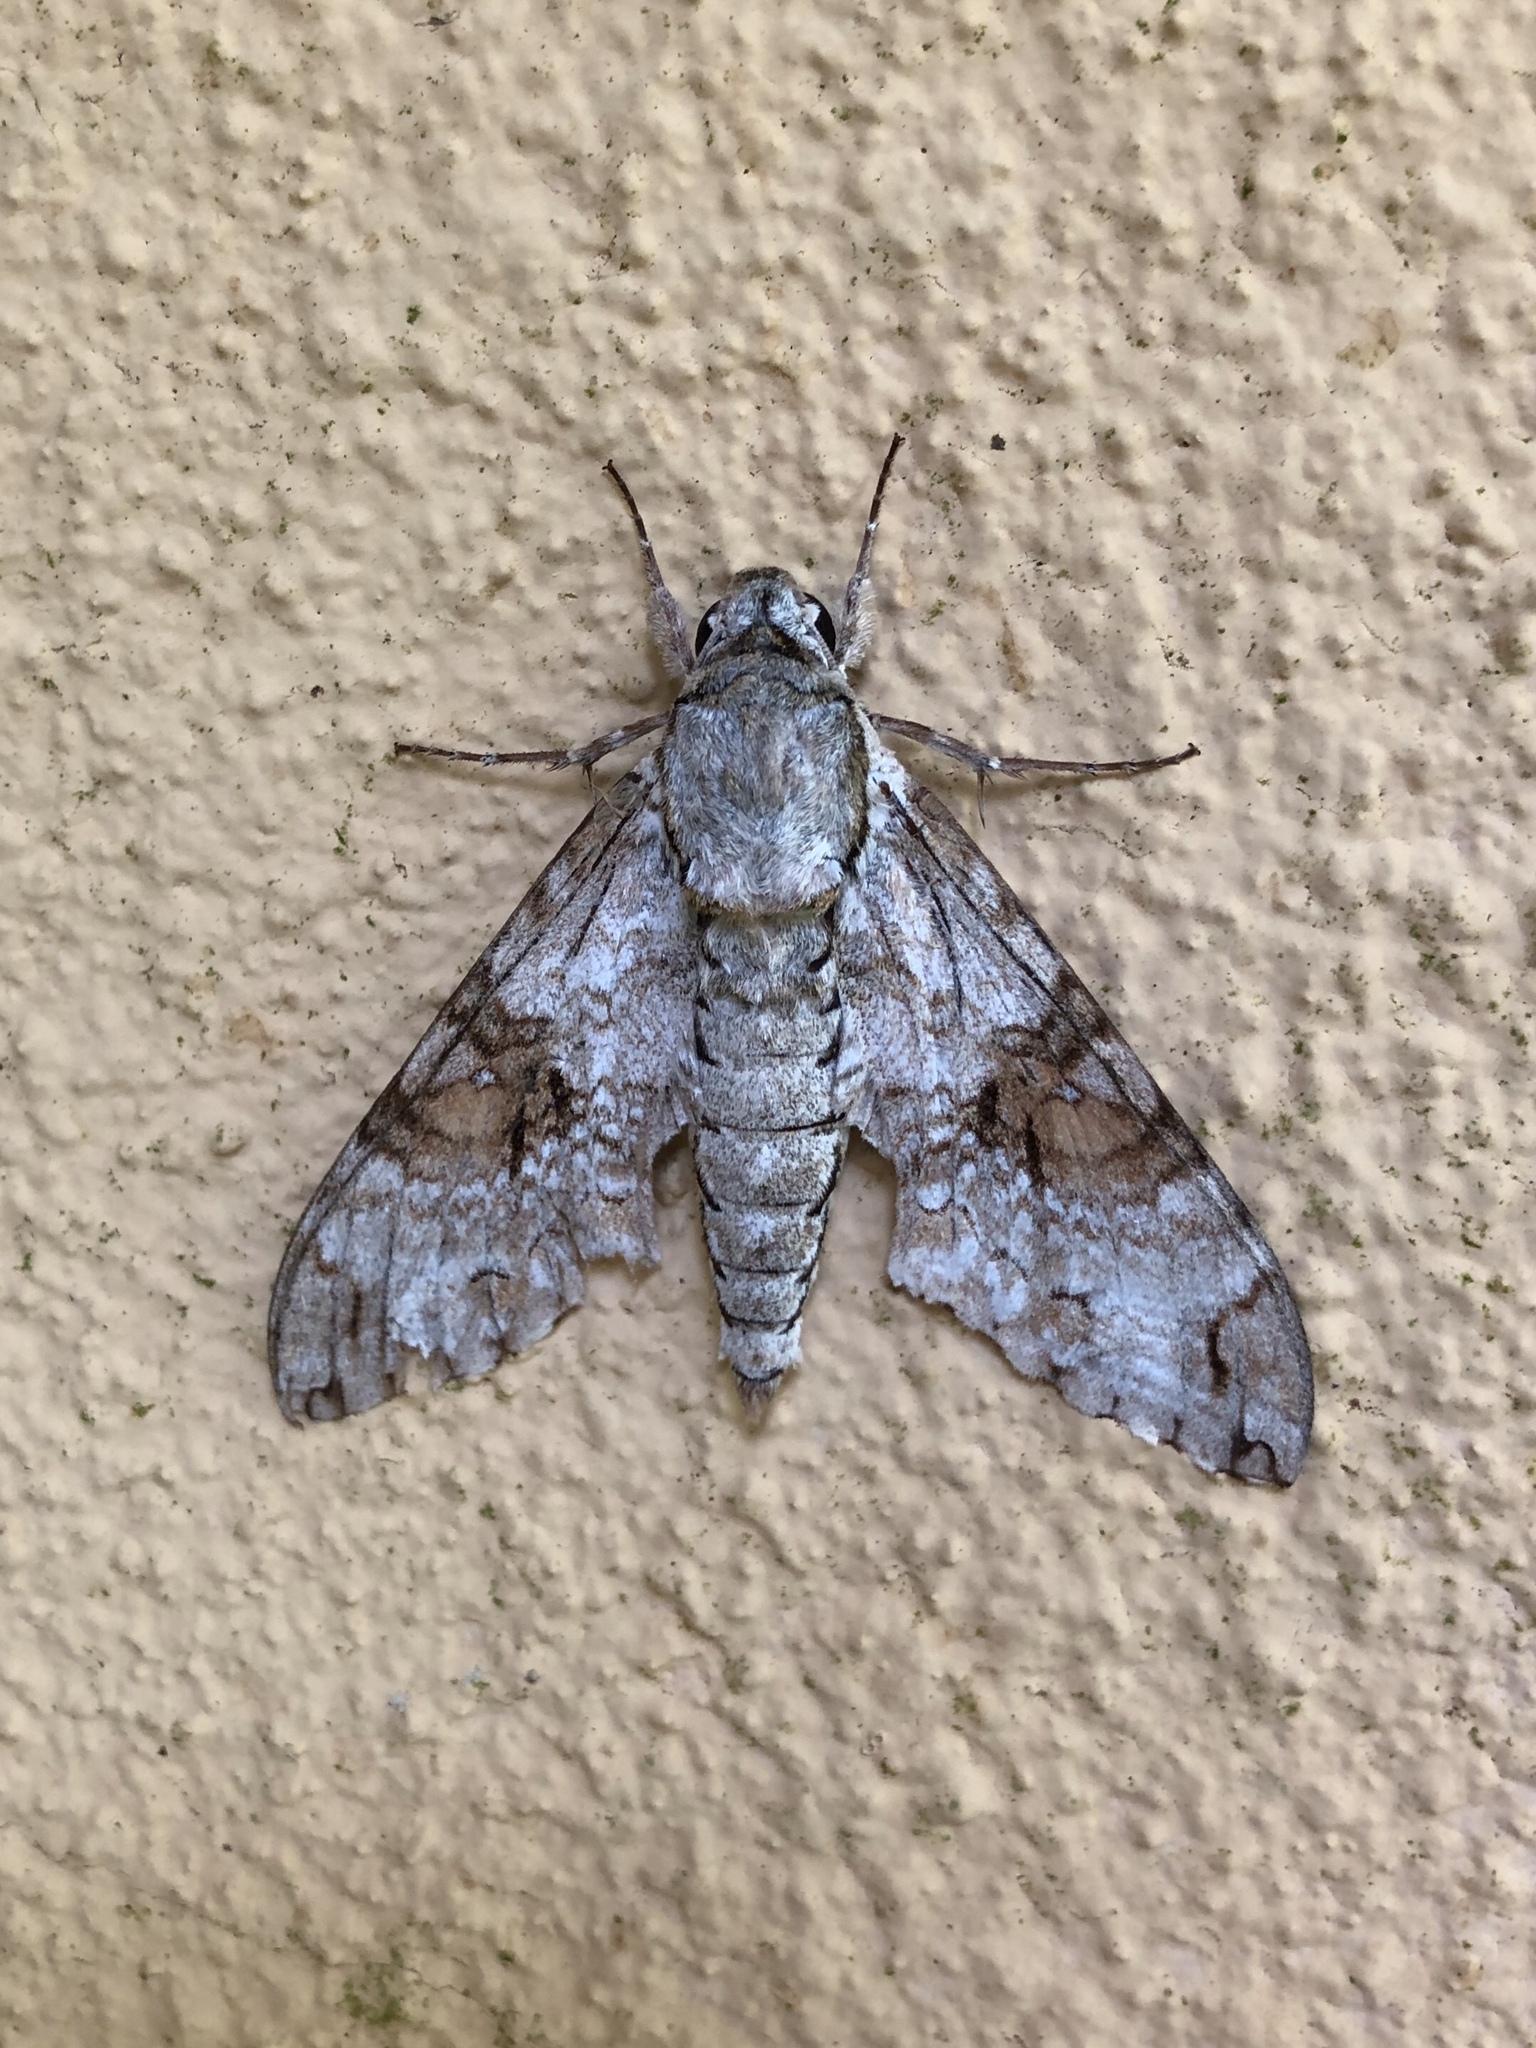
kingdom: Animalia
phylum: Arthropoda
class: Insecta
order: Lepidoptera
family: Sphingidae
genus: Manduca
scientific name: Manduca florestan
